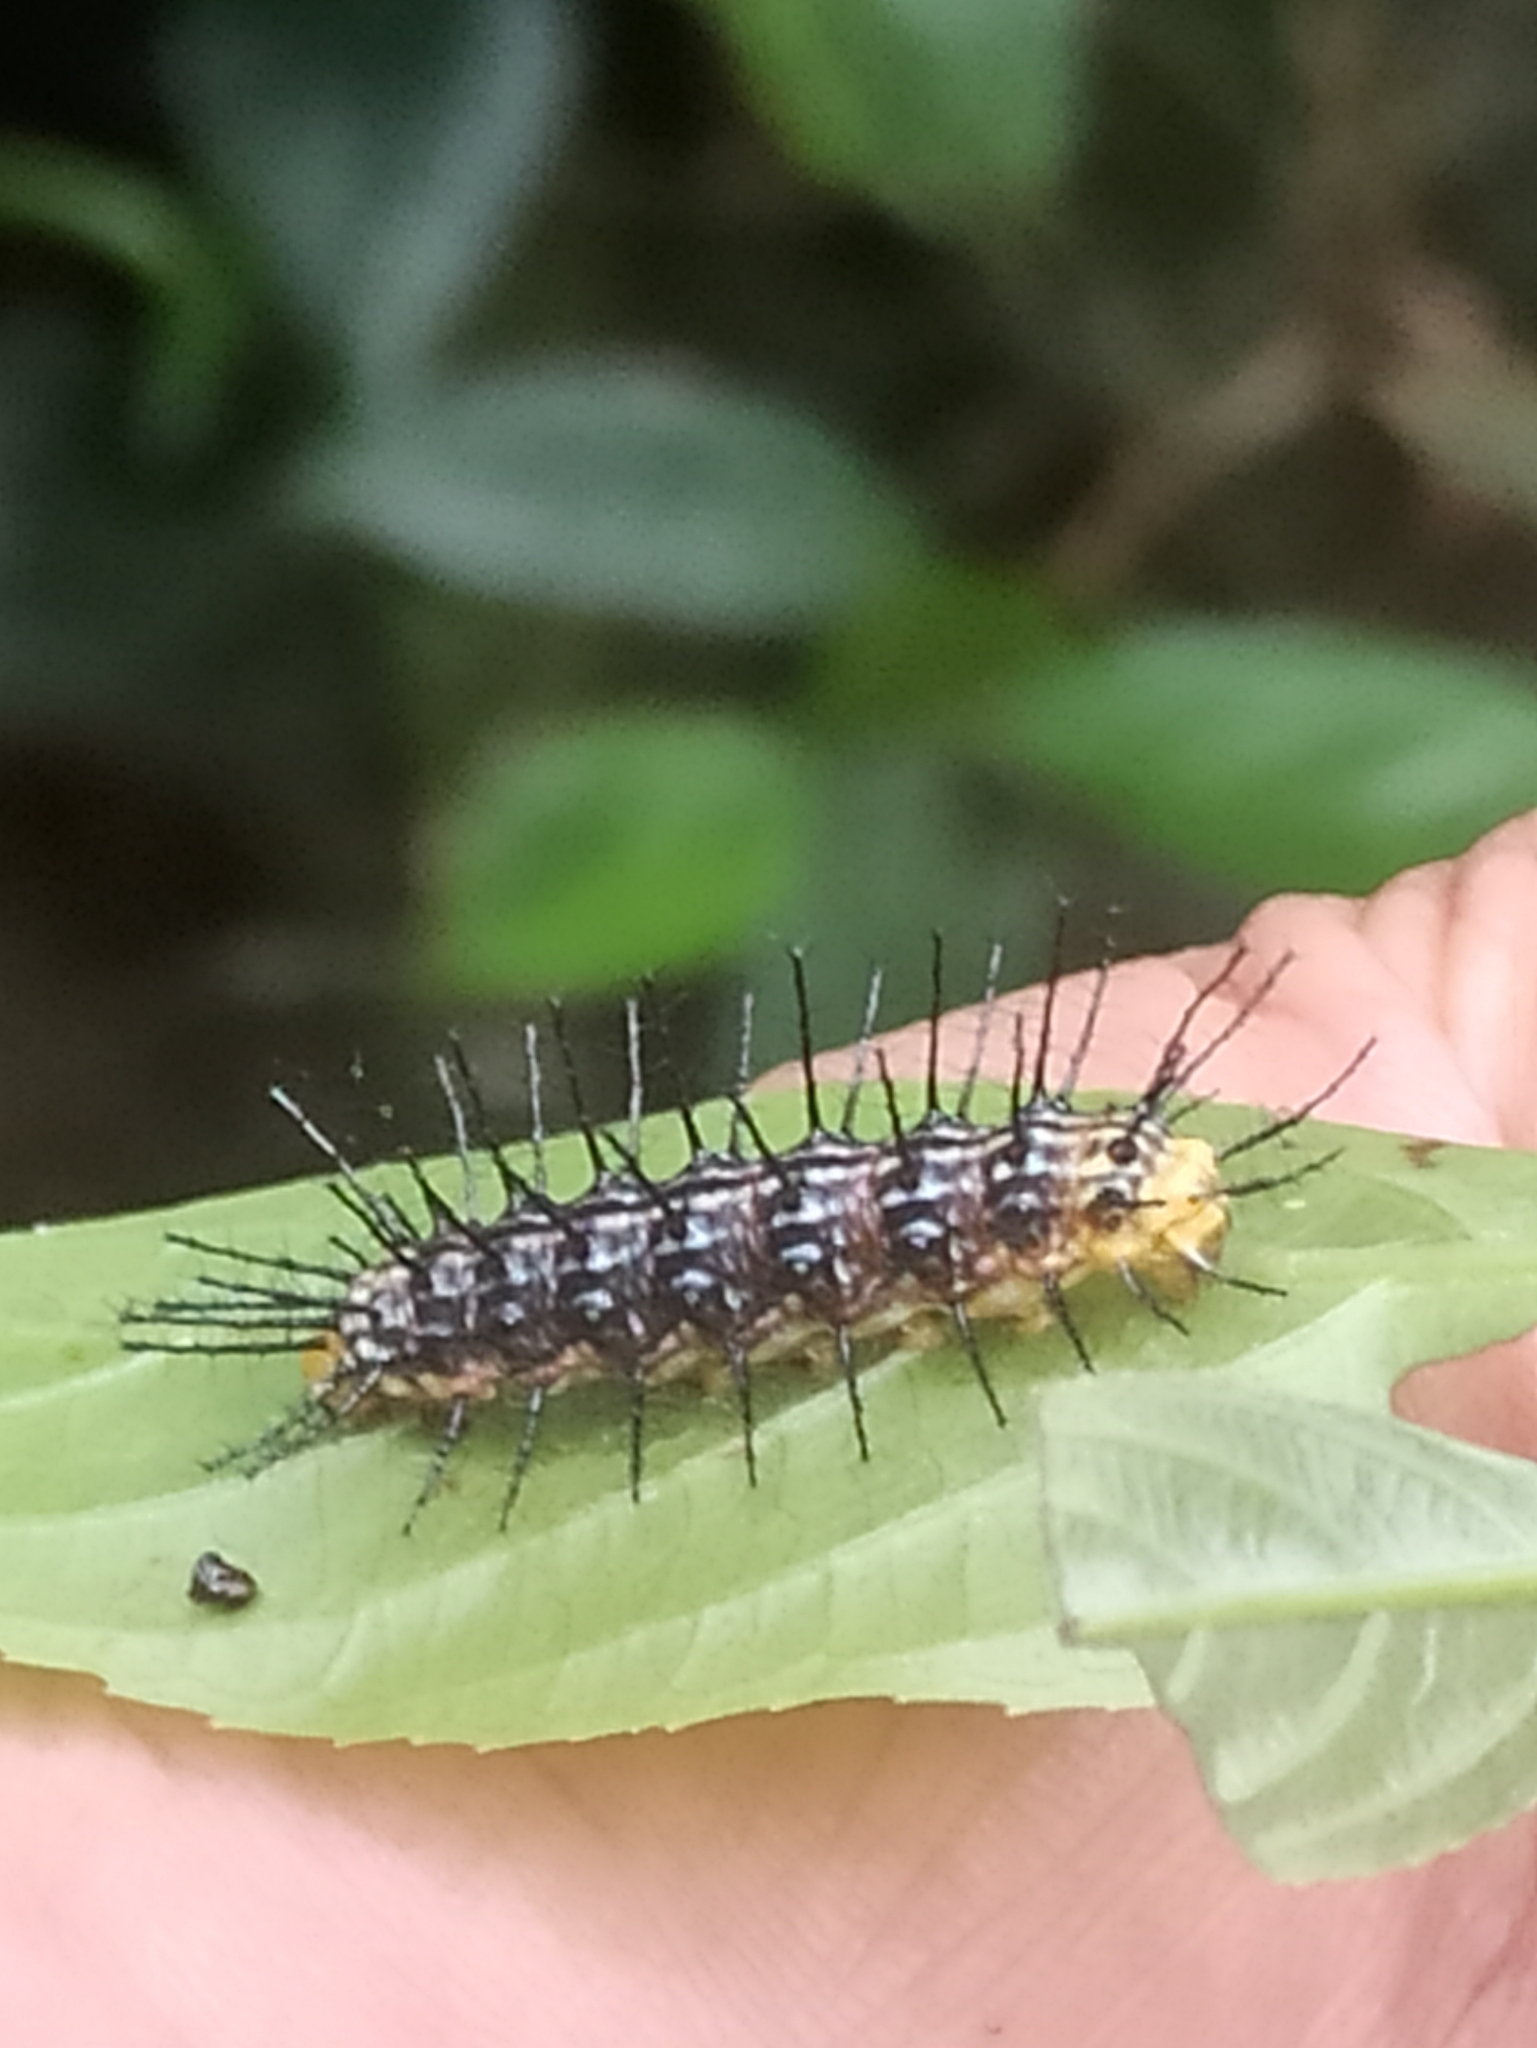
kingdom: Animalia
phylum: Arthropoda
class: Insecta
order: Lepidoptera
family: Nymphalidae
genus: Cirrochroa
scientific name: Cirrochroa thais
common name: Tamil yeoman
